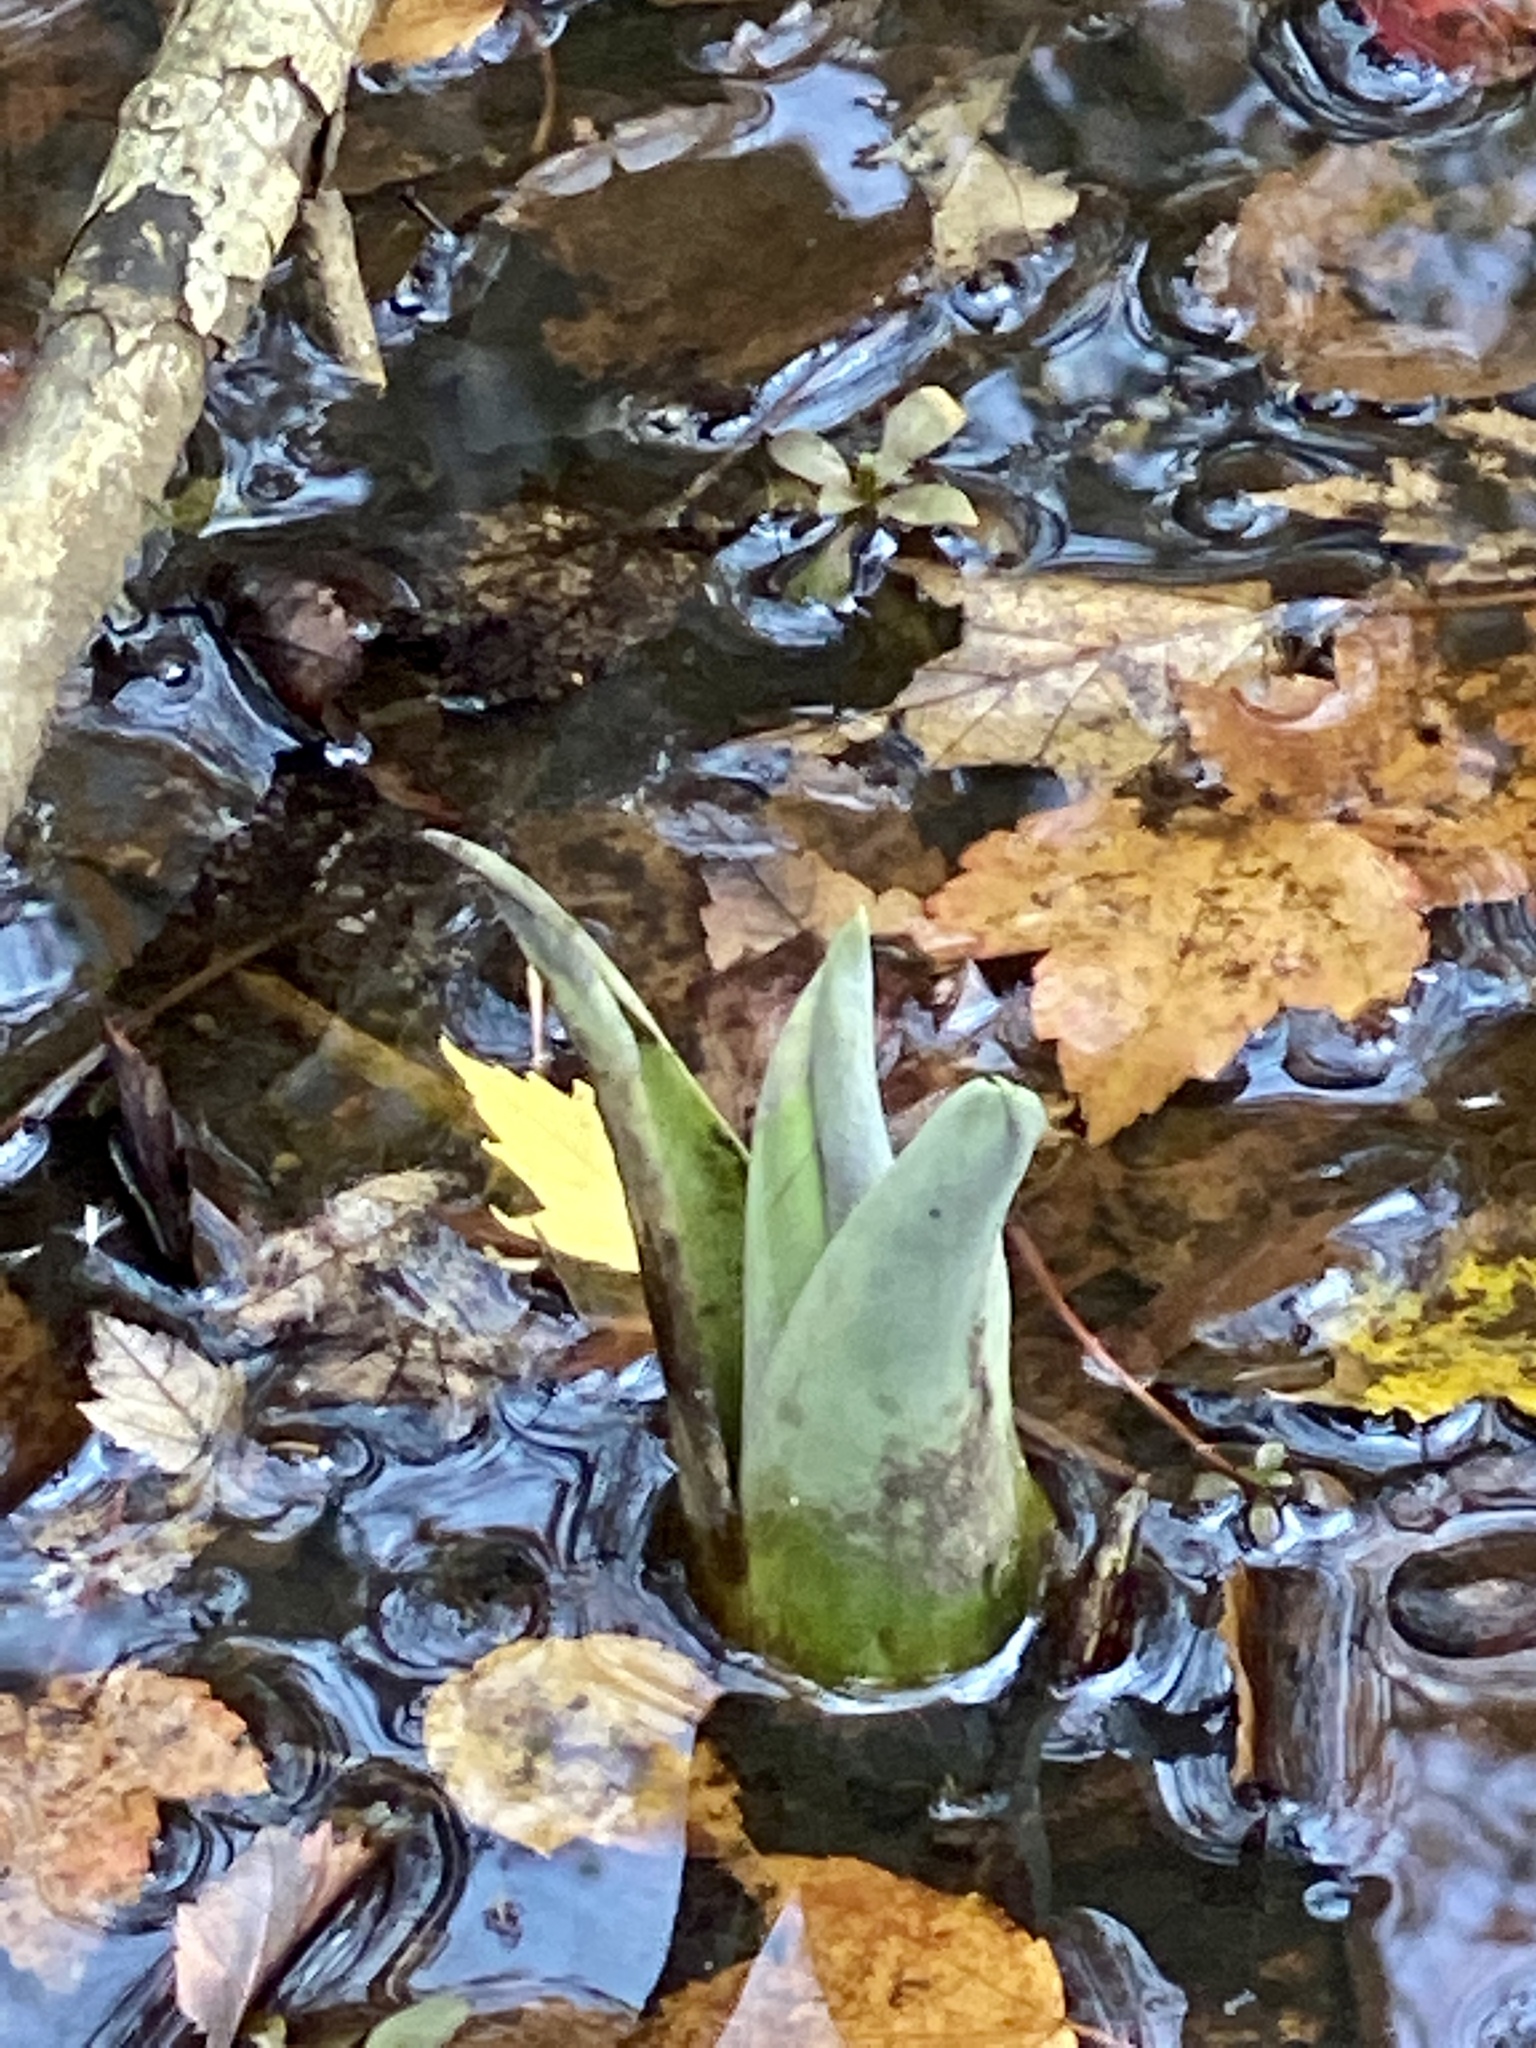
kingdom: Plantae
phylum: Tracheophyta
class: Liliopsida
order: Alismatales
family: Araceae
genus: Symplocarpus
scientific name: Symplocarpus foetidus
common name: Eastern skunk cabbage
